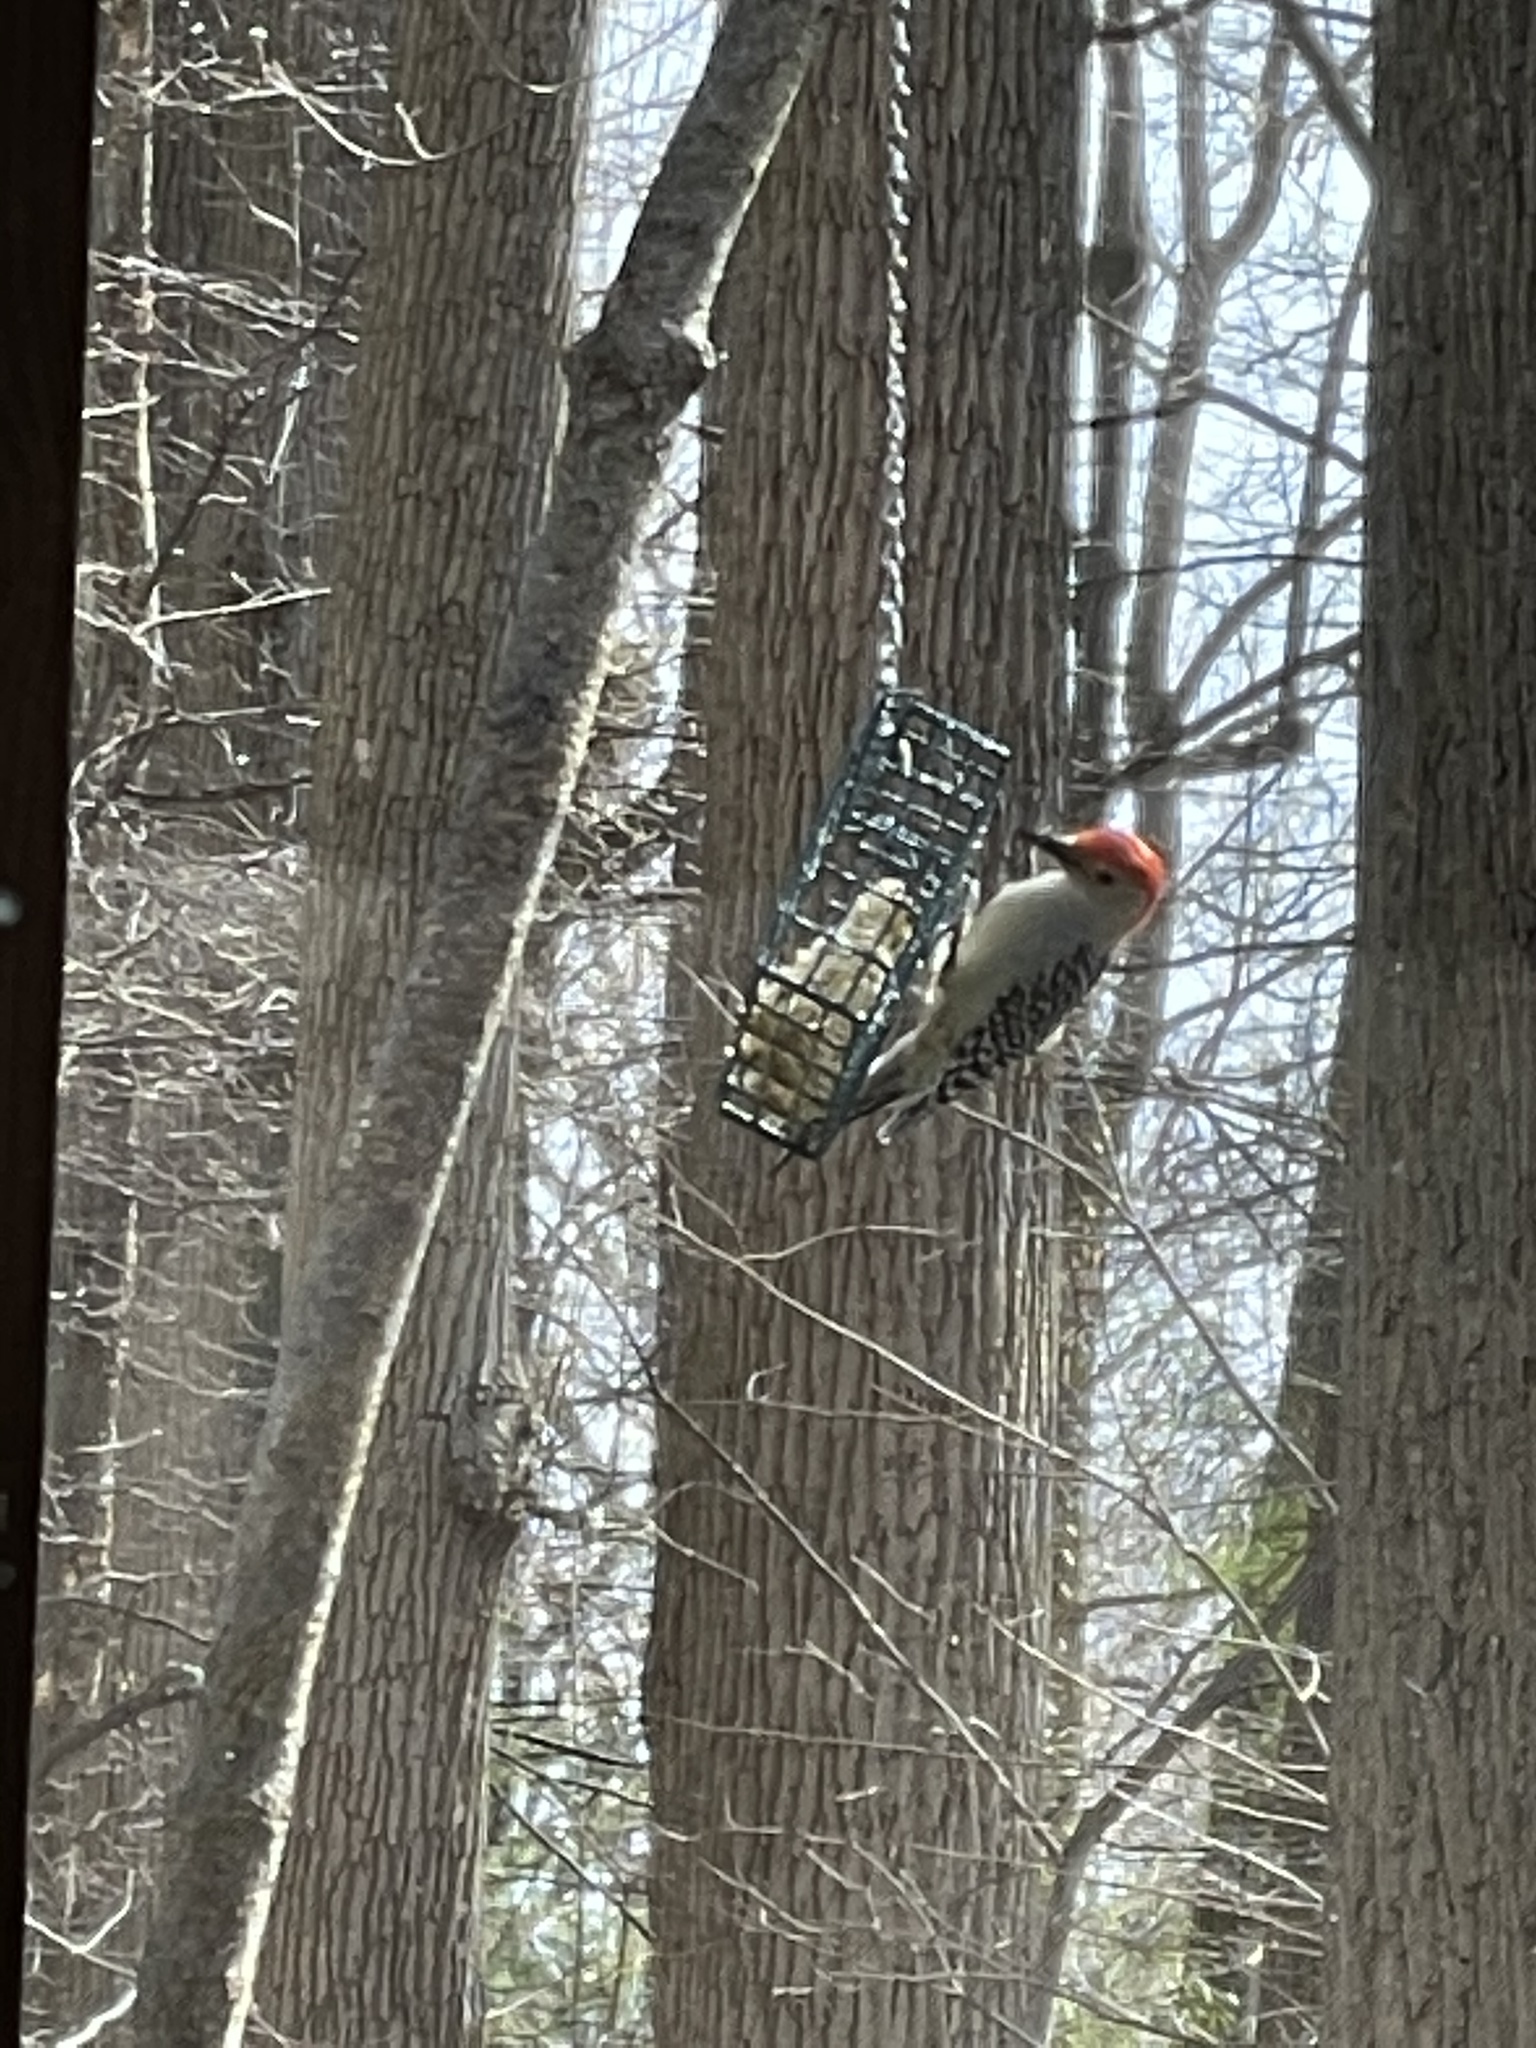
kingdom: Animalia
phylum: Chordata
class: Aves
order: Piciformes
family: Picidae
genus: Melanerpes
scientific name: Melanerpes carolinus
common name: Red-bellied woodpecker
